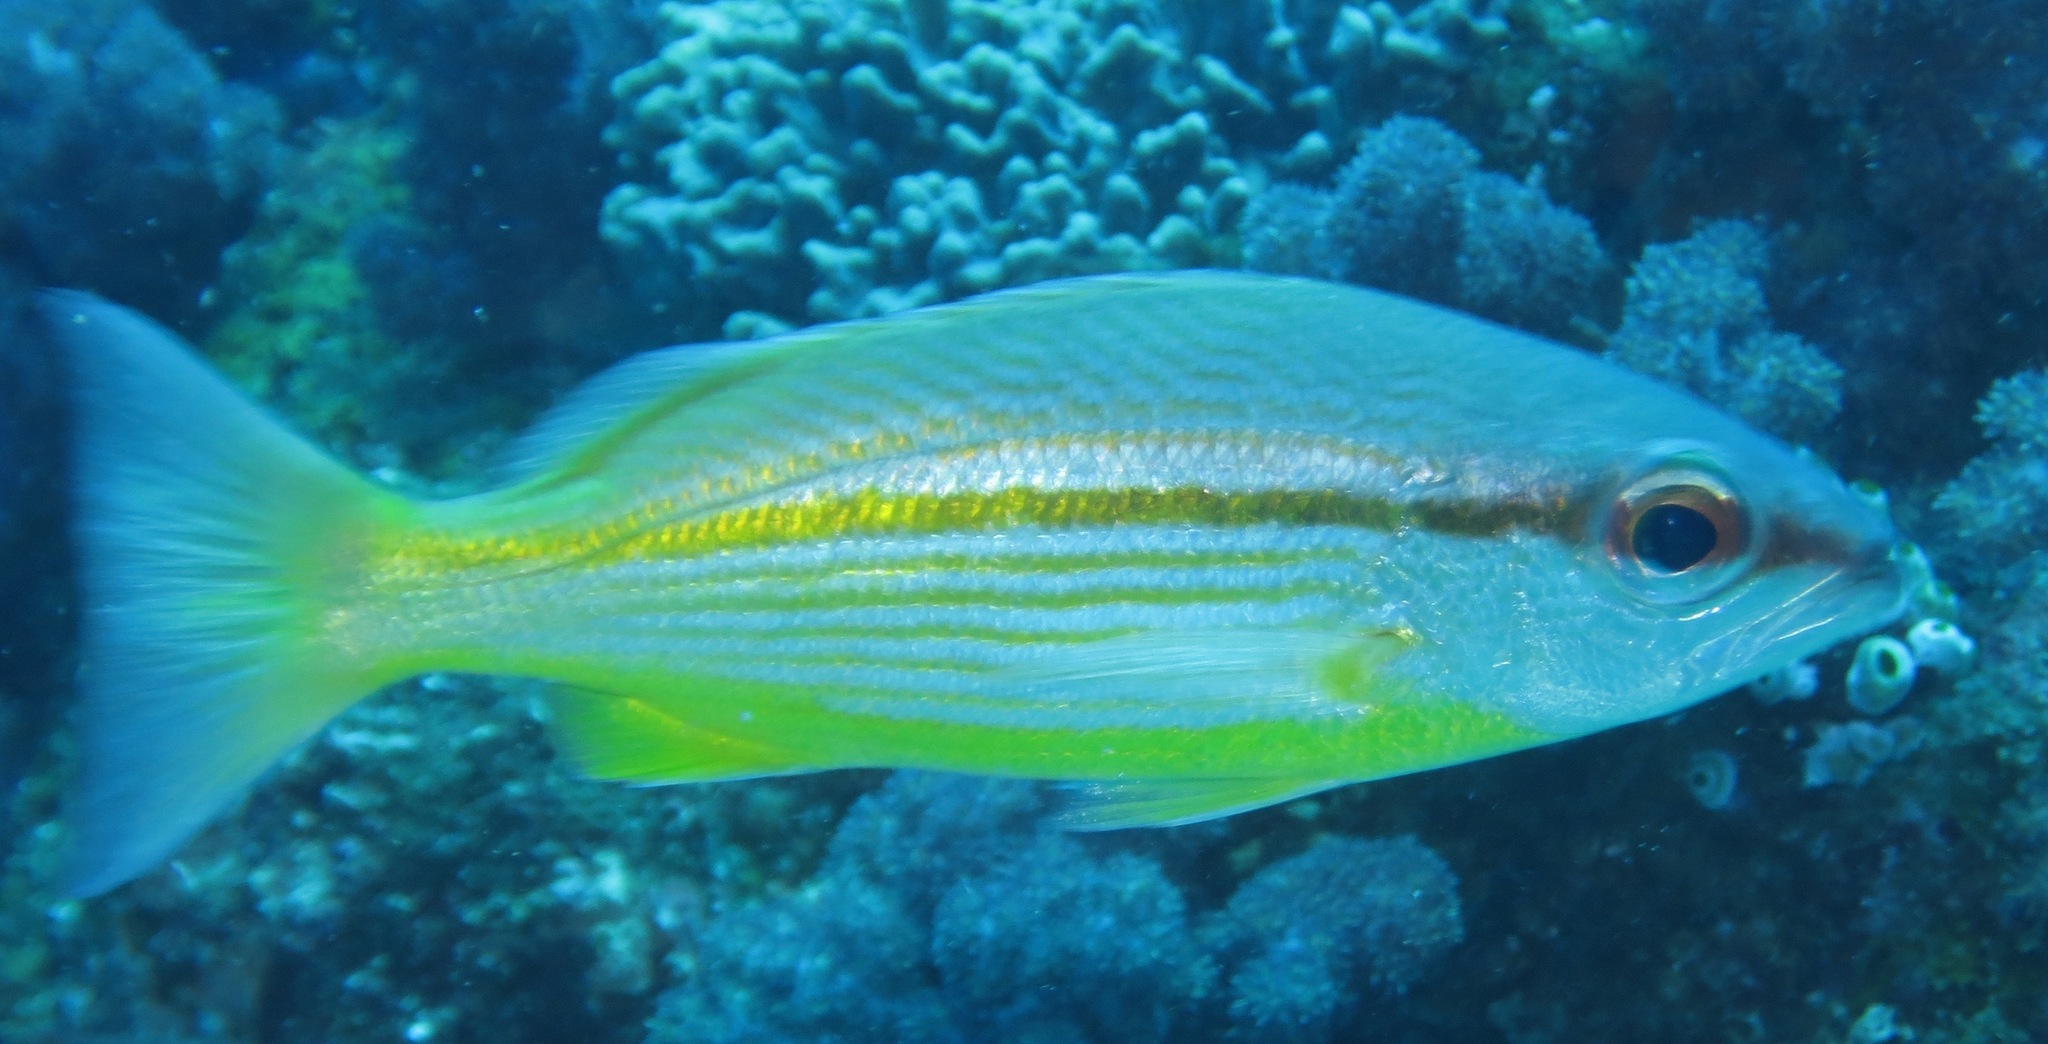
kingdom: Animalia
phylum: Chordata
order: Perciformes
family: Lutjanidae
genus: Lutjanus
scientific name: Lutjanus lutjanus
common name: Bigeye snapper
